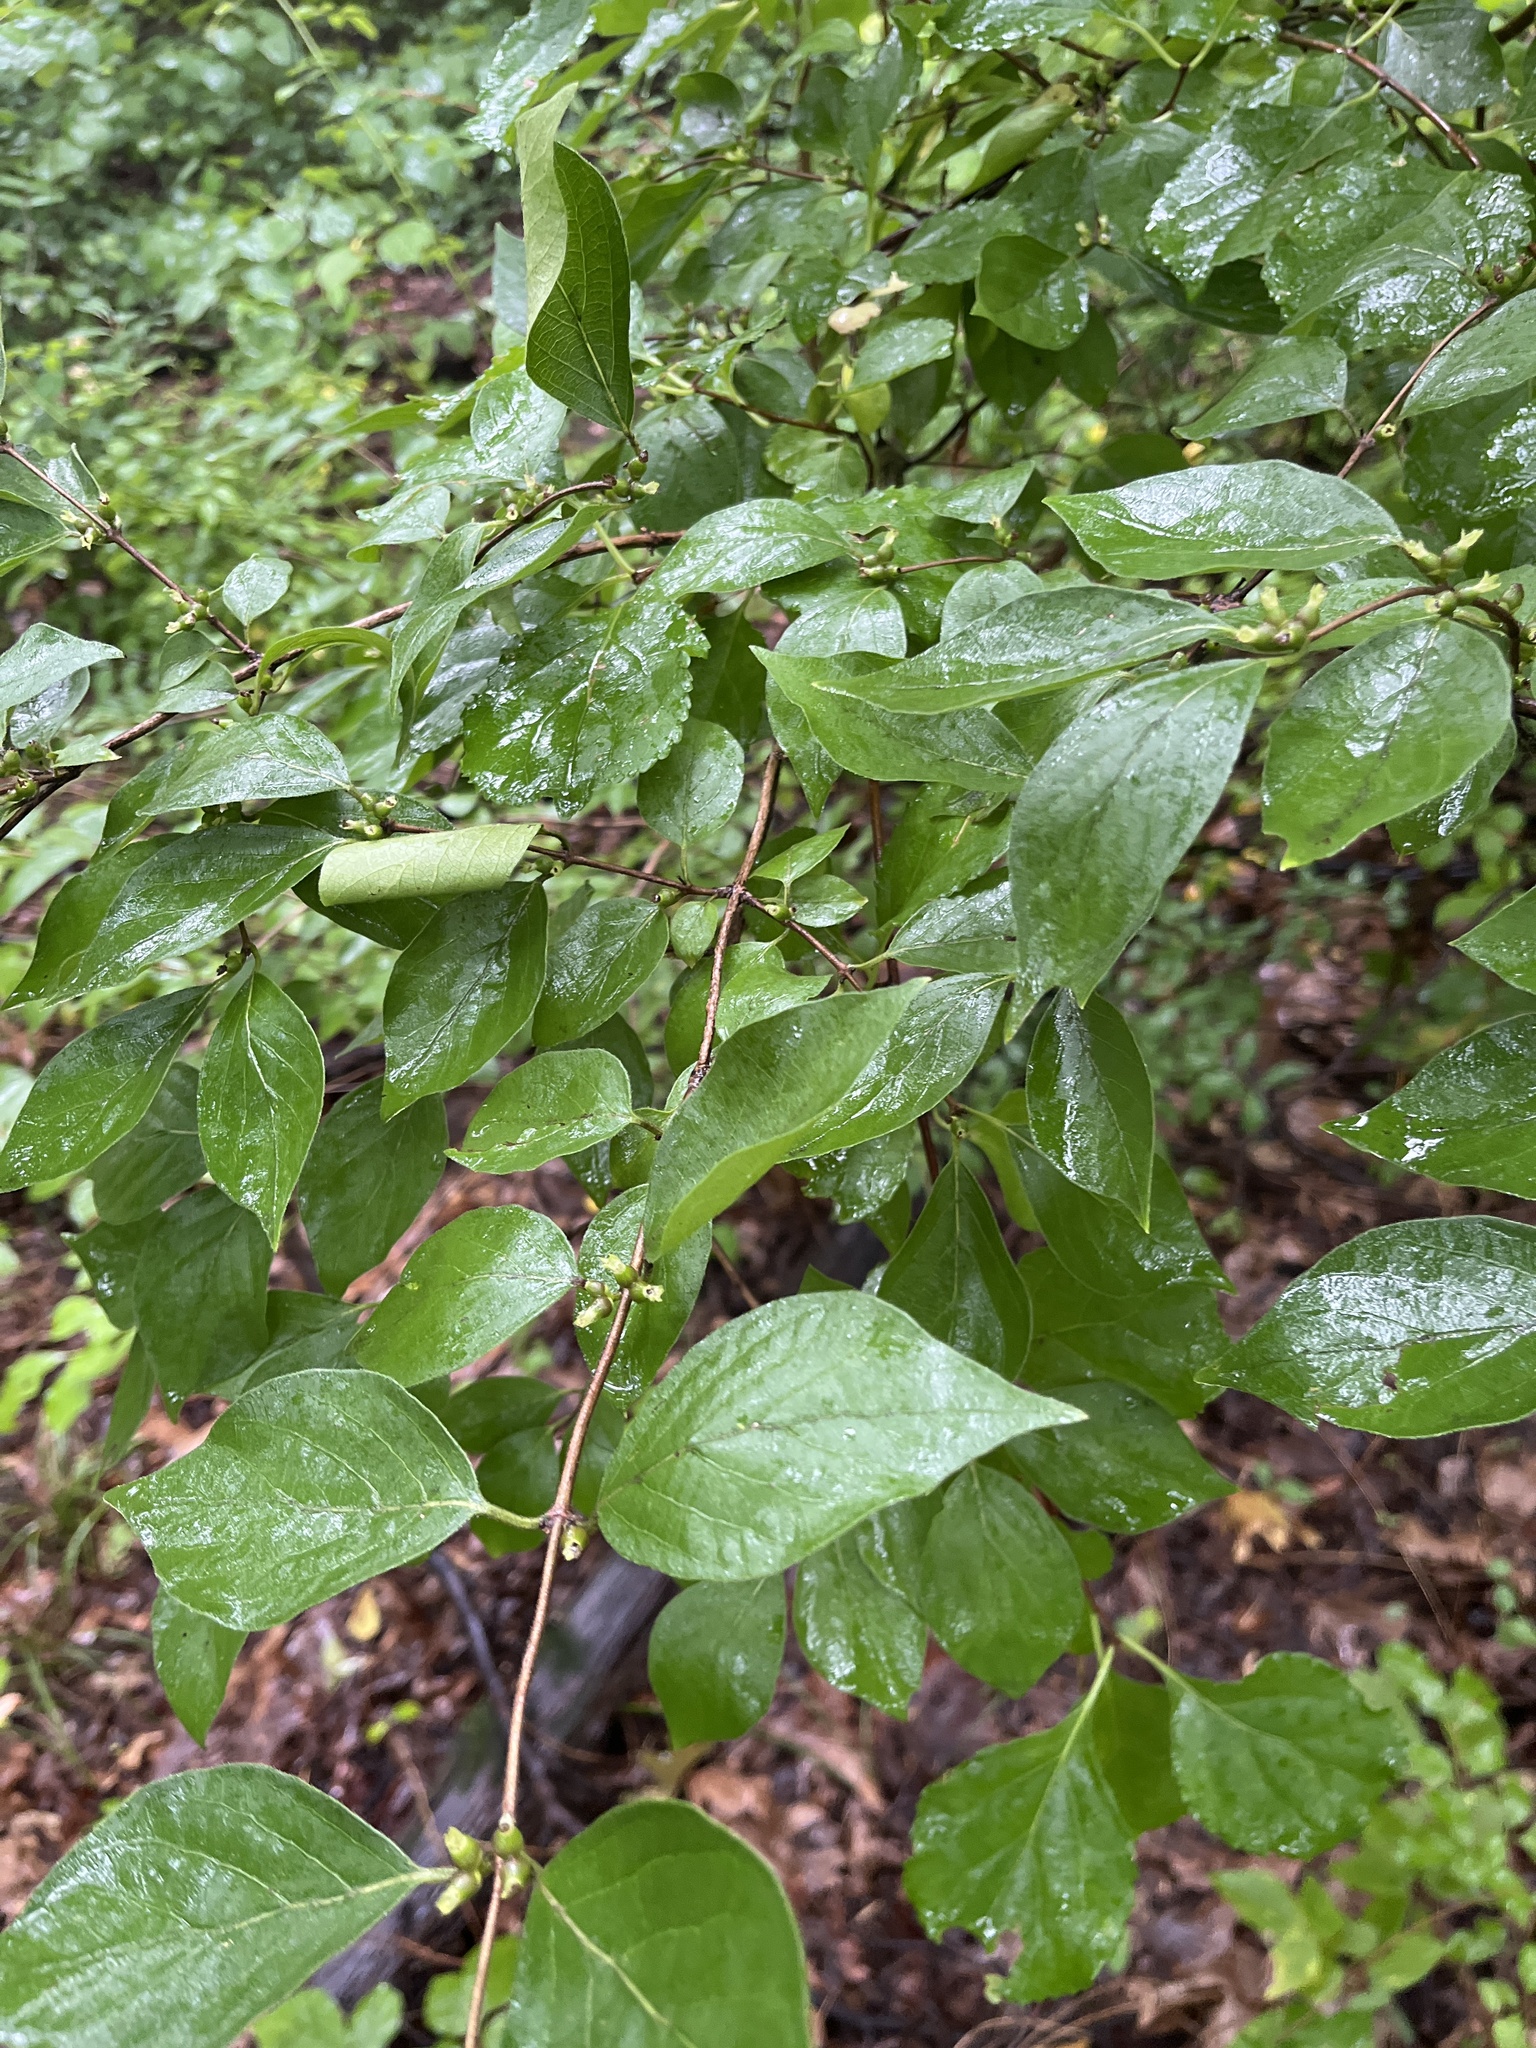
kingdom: Plantae
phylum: Tracheophyta
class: Magnoliopsida
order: Dipsacales
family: Caprifoliaceae
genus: Lonicera
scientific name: Lonicera maackii
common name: Amur honeysuckle
